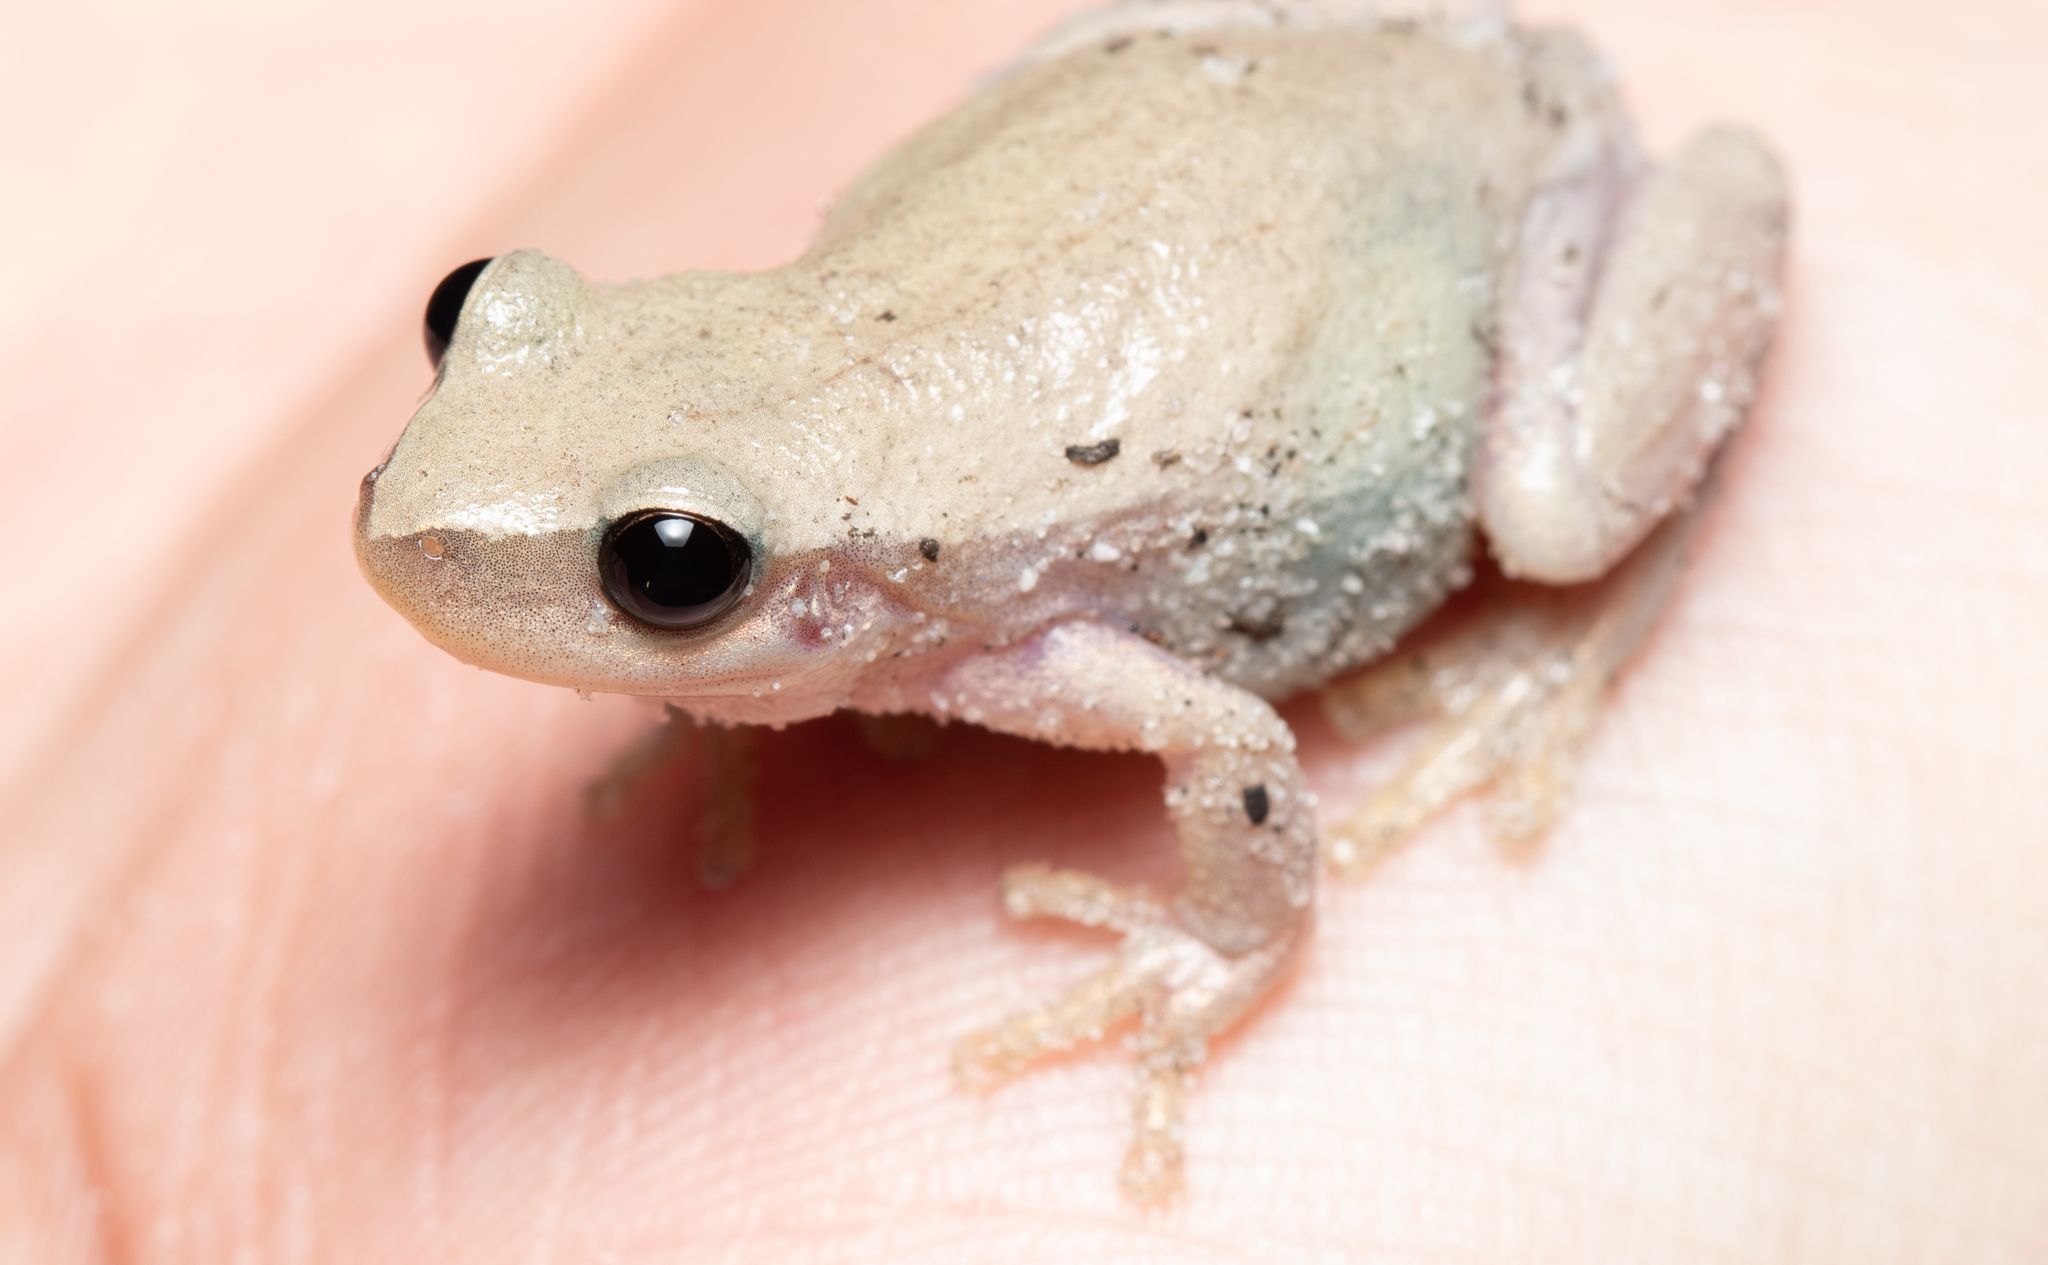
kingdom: Animalia
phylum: Chordata
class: Amphibia
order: Anura
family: Pelodryadidae
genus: Litoria
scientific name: Litoria rubella
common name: Desert tree frog
